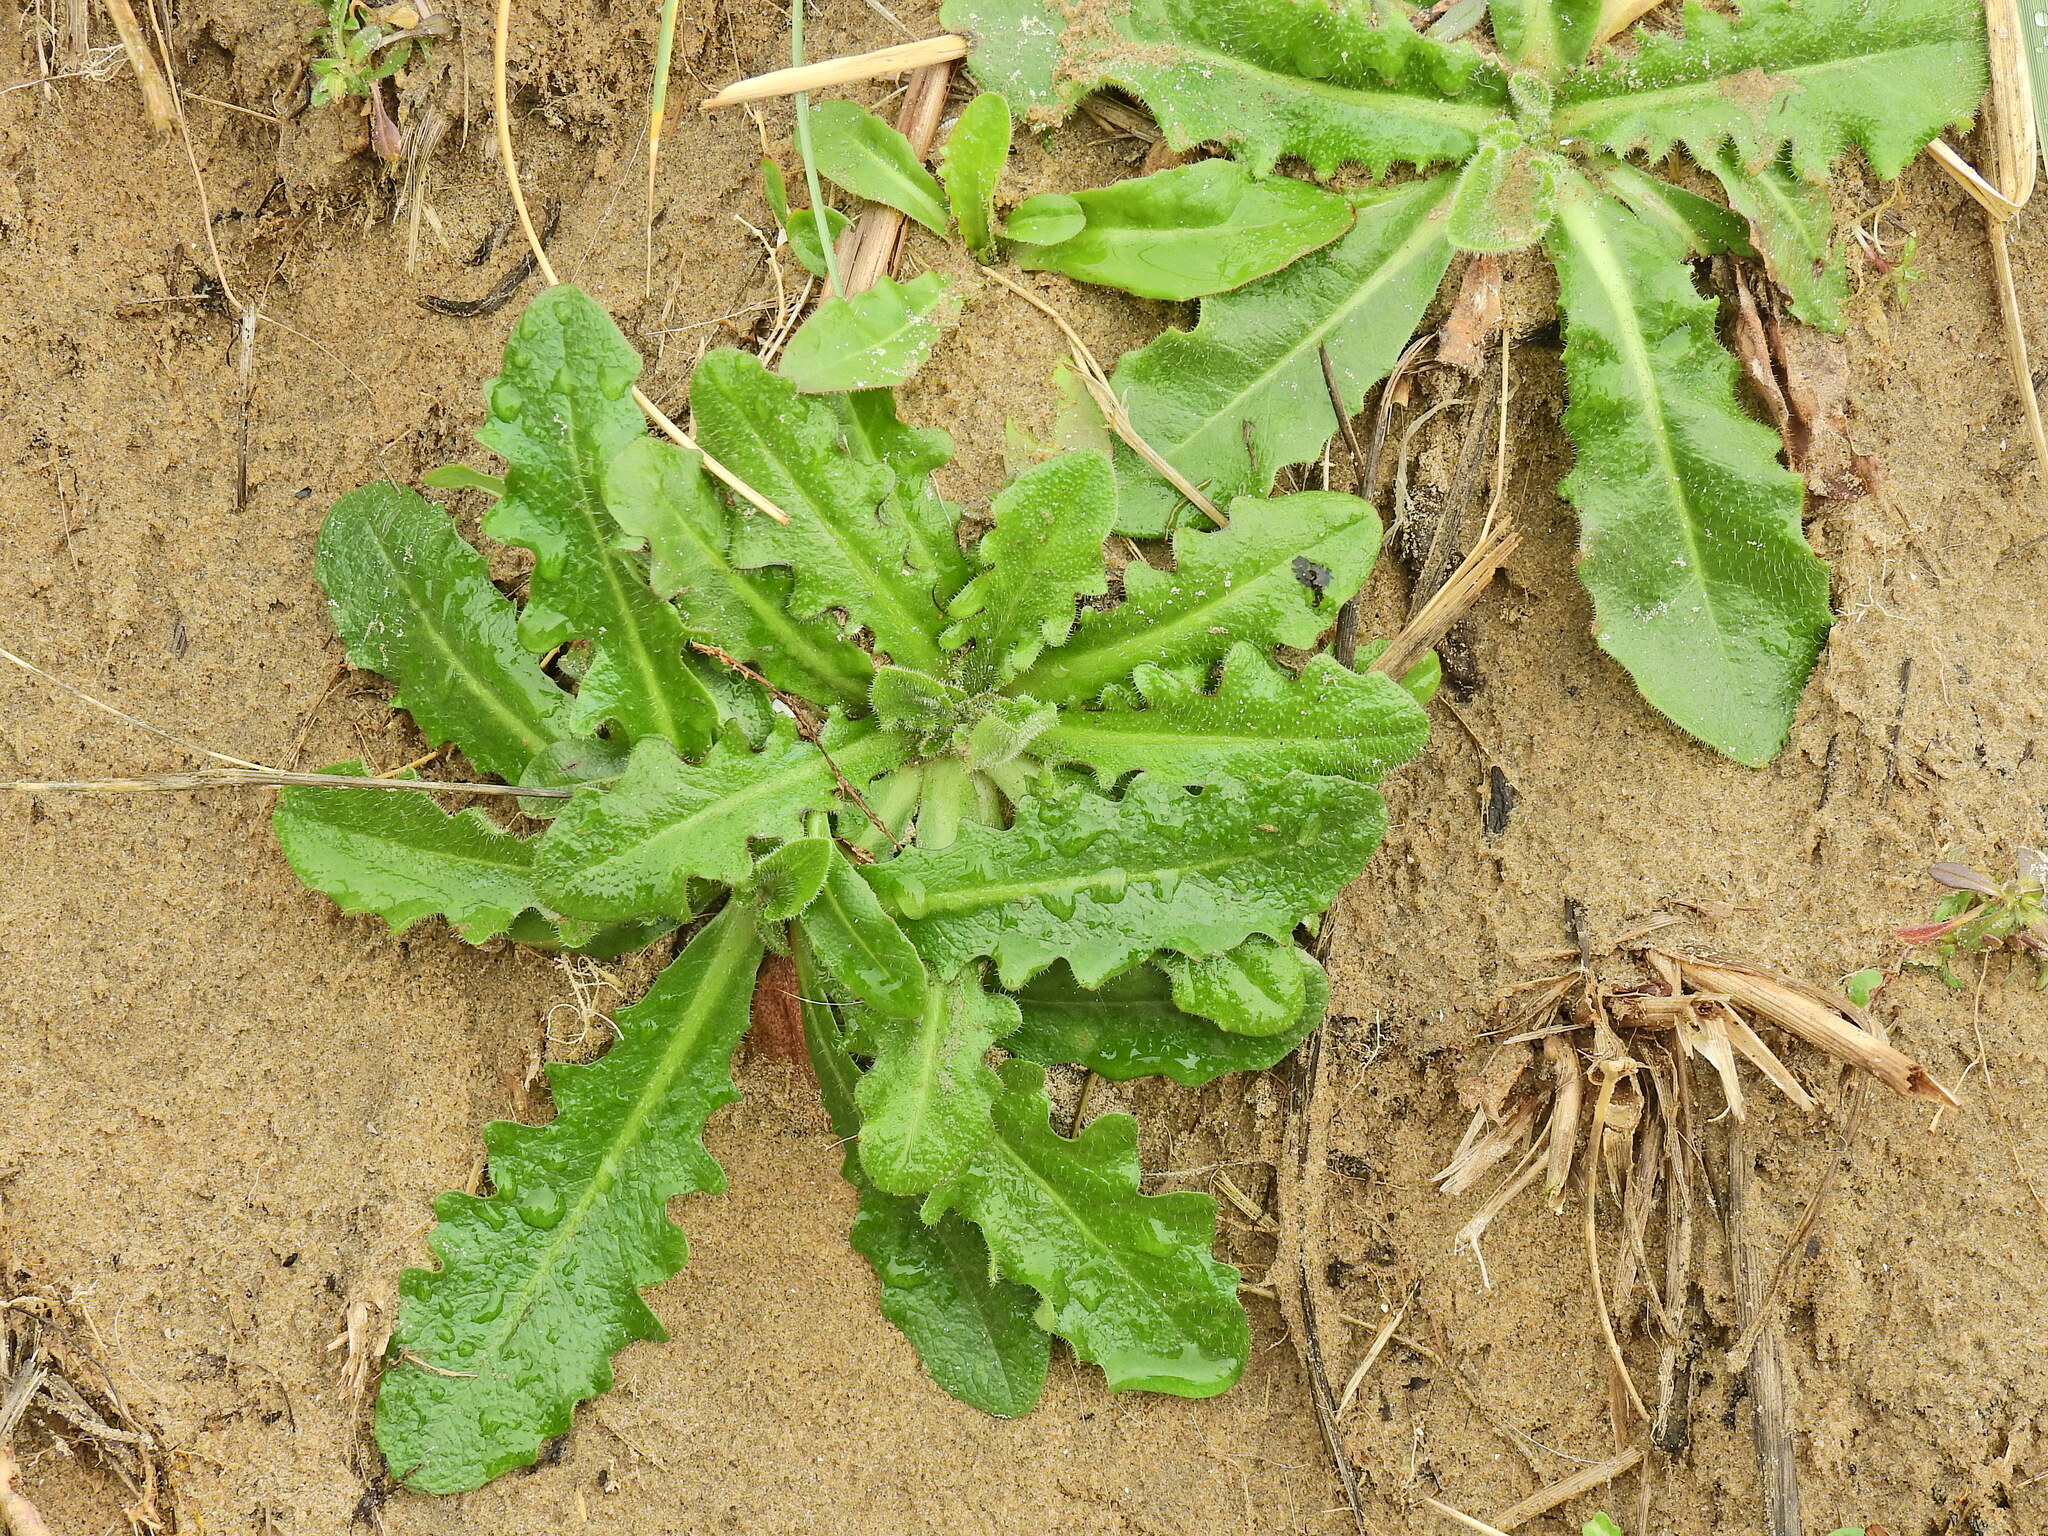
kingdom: Plantae
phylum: Tracheophyta
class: Magnoliopsida
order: Asterales
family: Asteraceae
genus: Hypochaeris
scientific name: Hypochaeris radicata
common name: Flatweed
